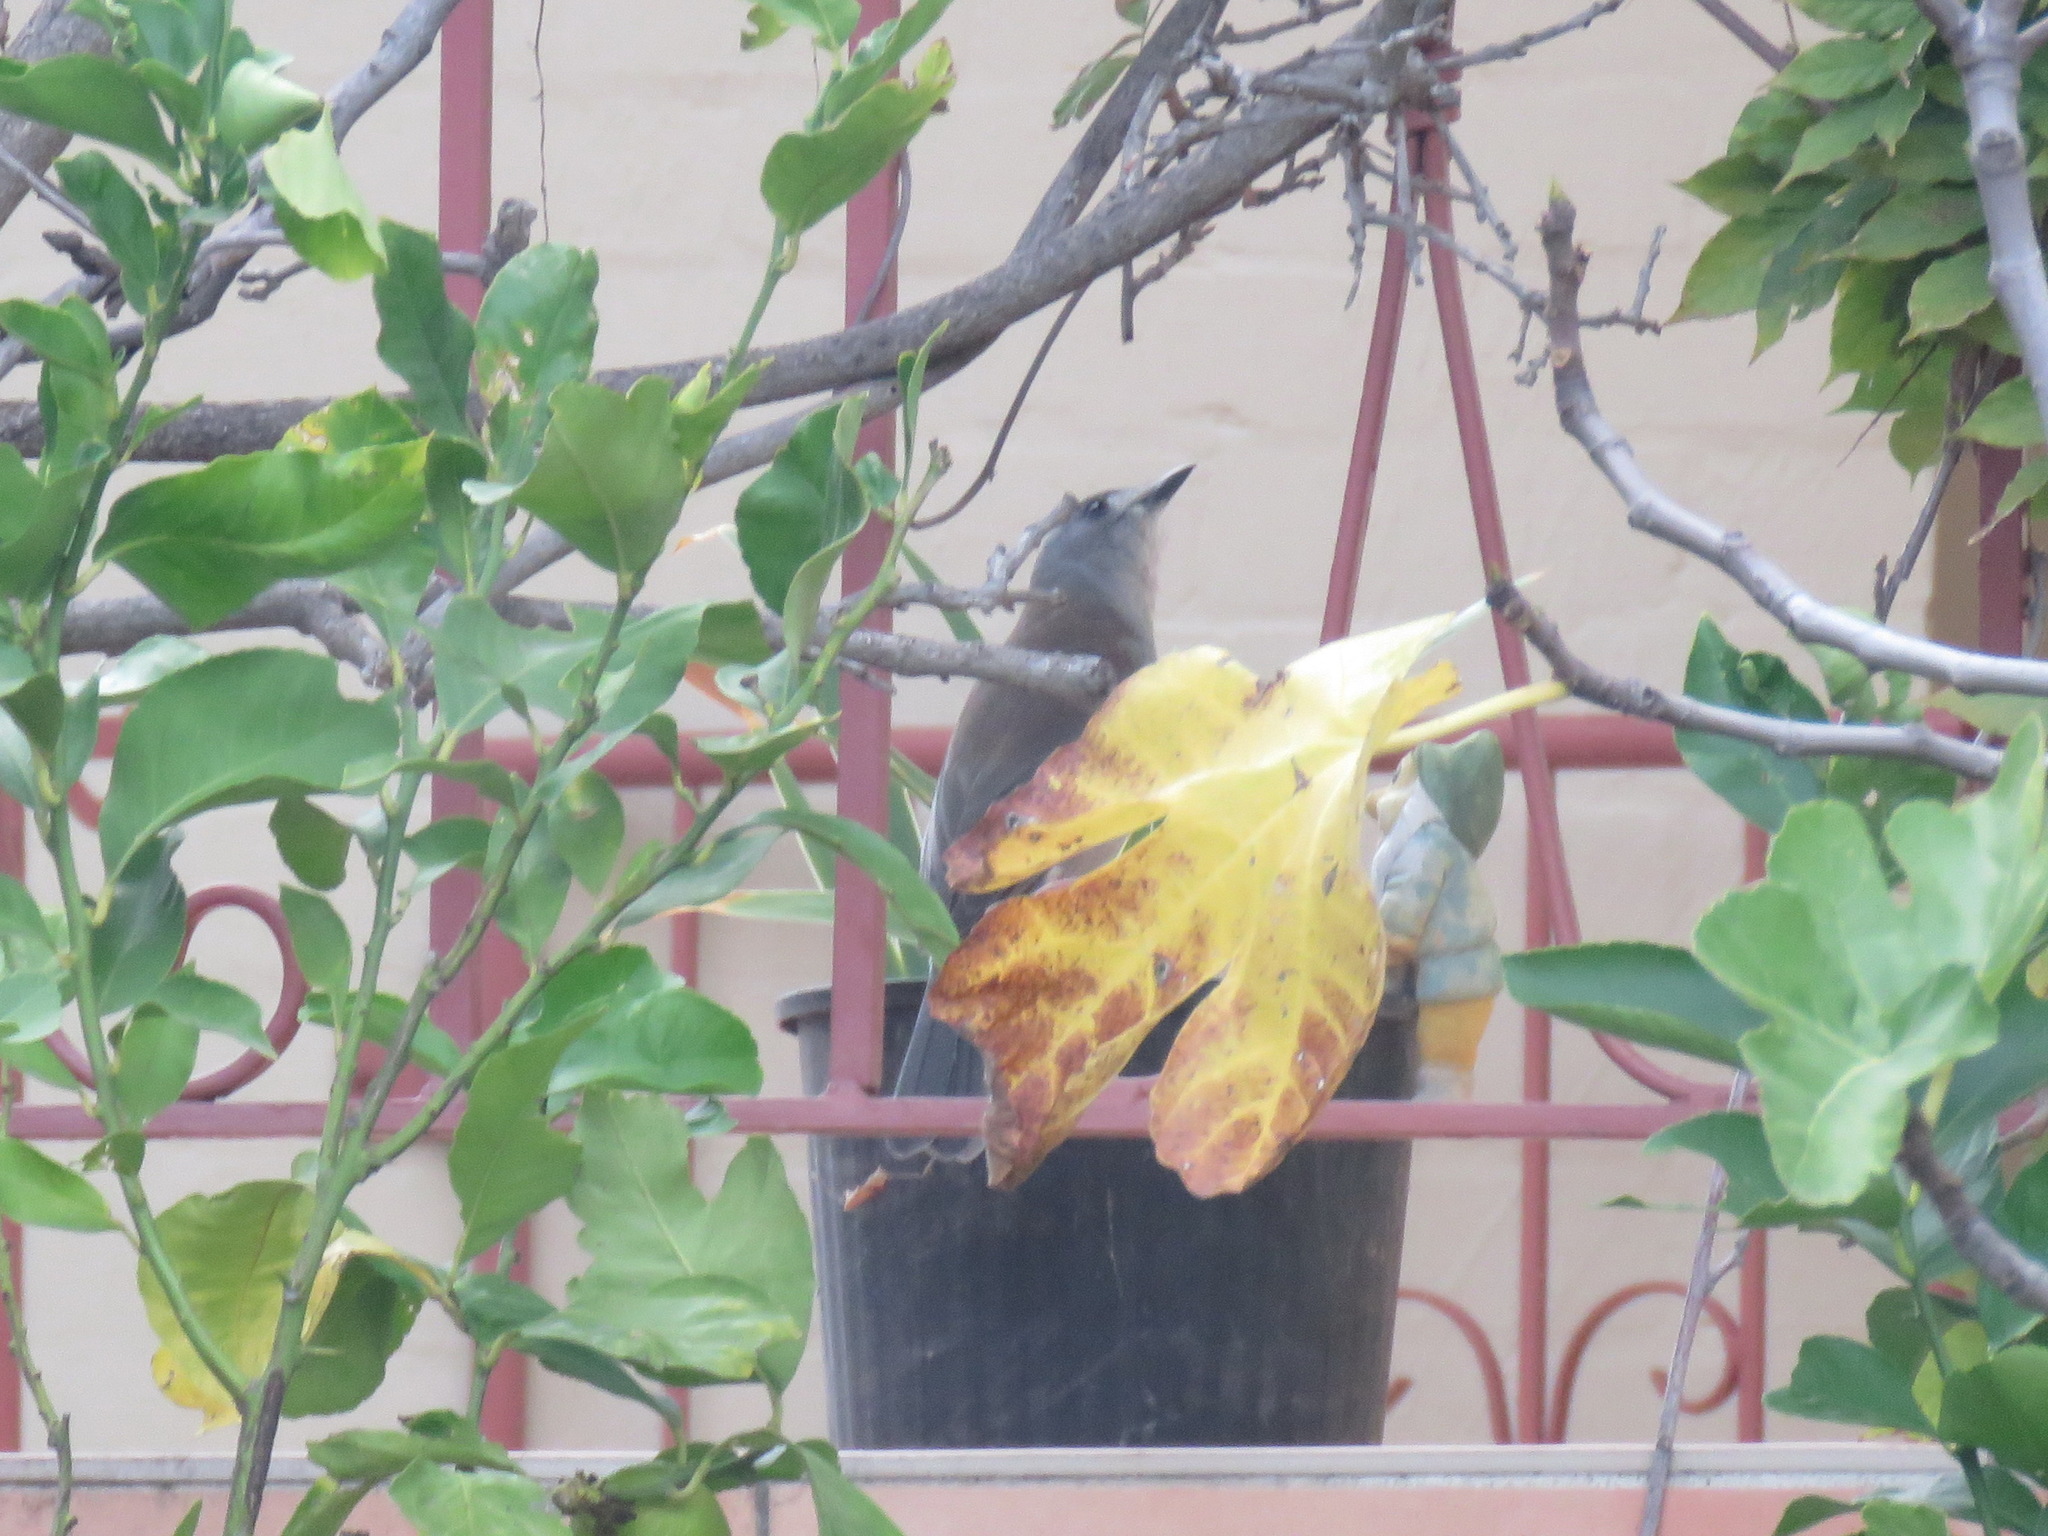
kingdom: Animalia
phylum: Chordata
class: Aves
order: Passeriformes
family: Pachycephalidae
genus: Colluricincla
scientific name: Colluricincla harmonica
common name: Grey shrikethrush
